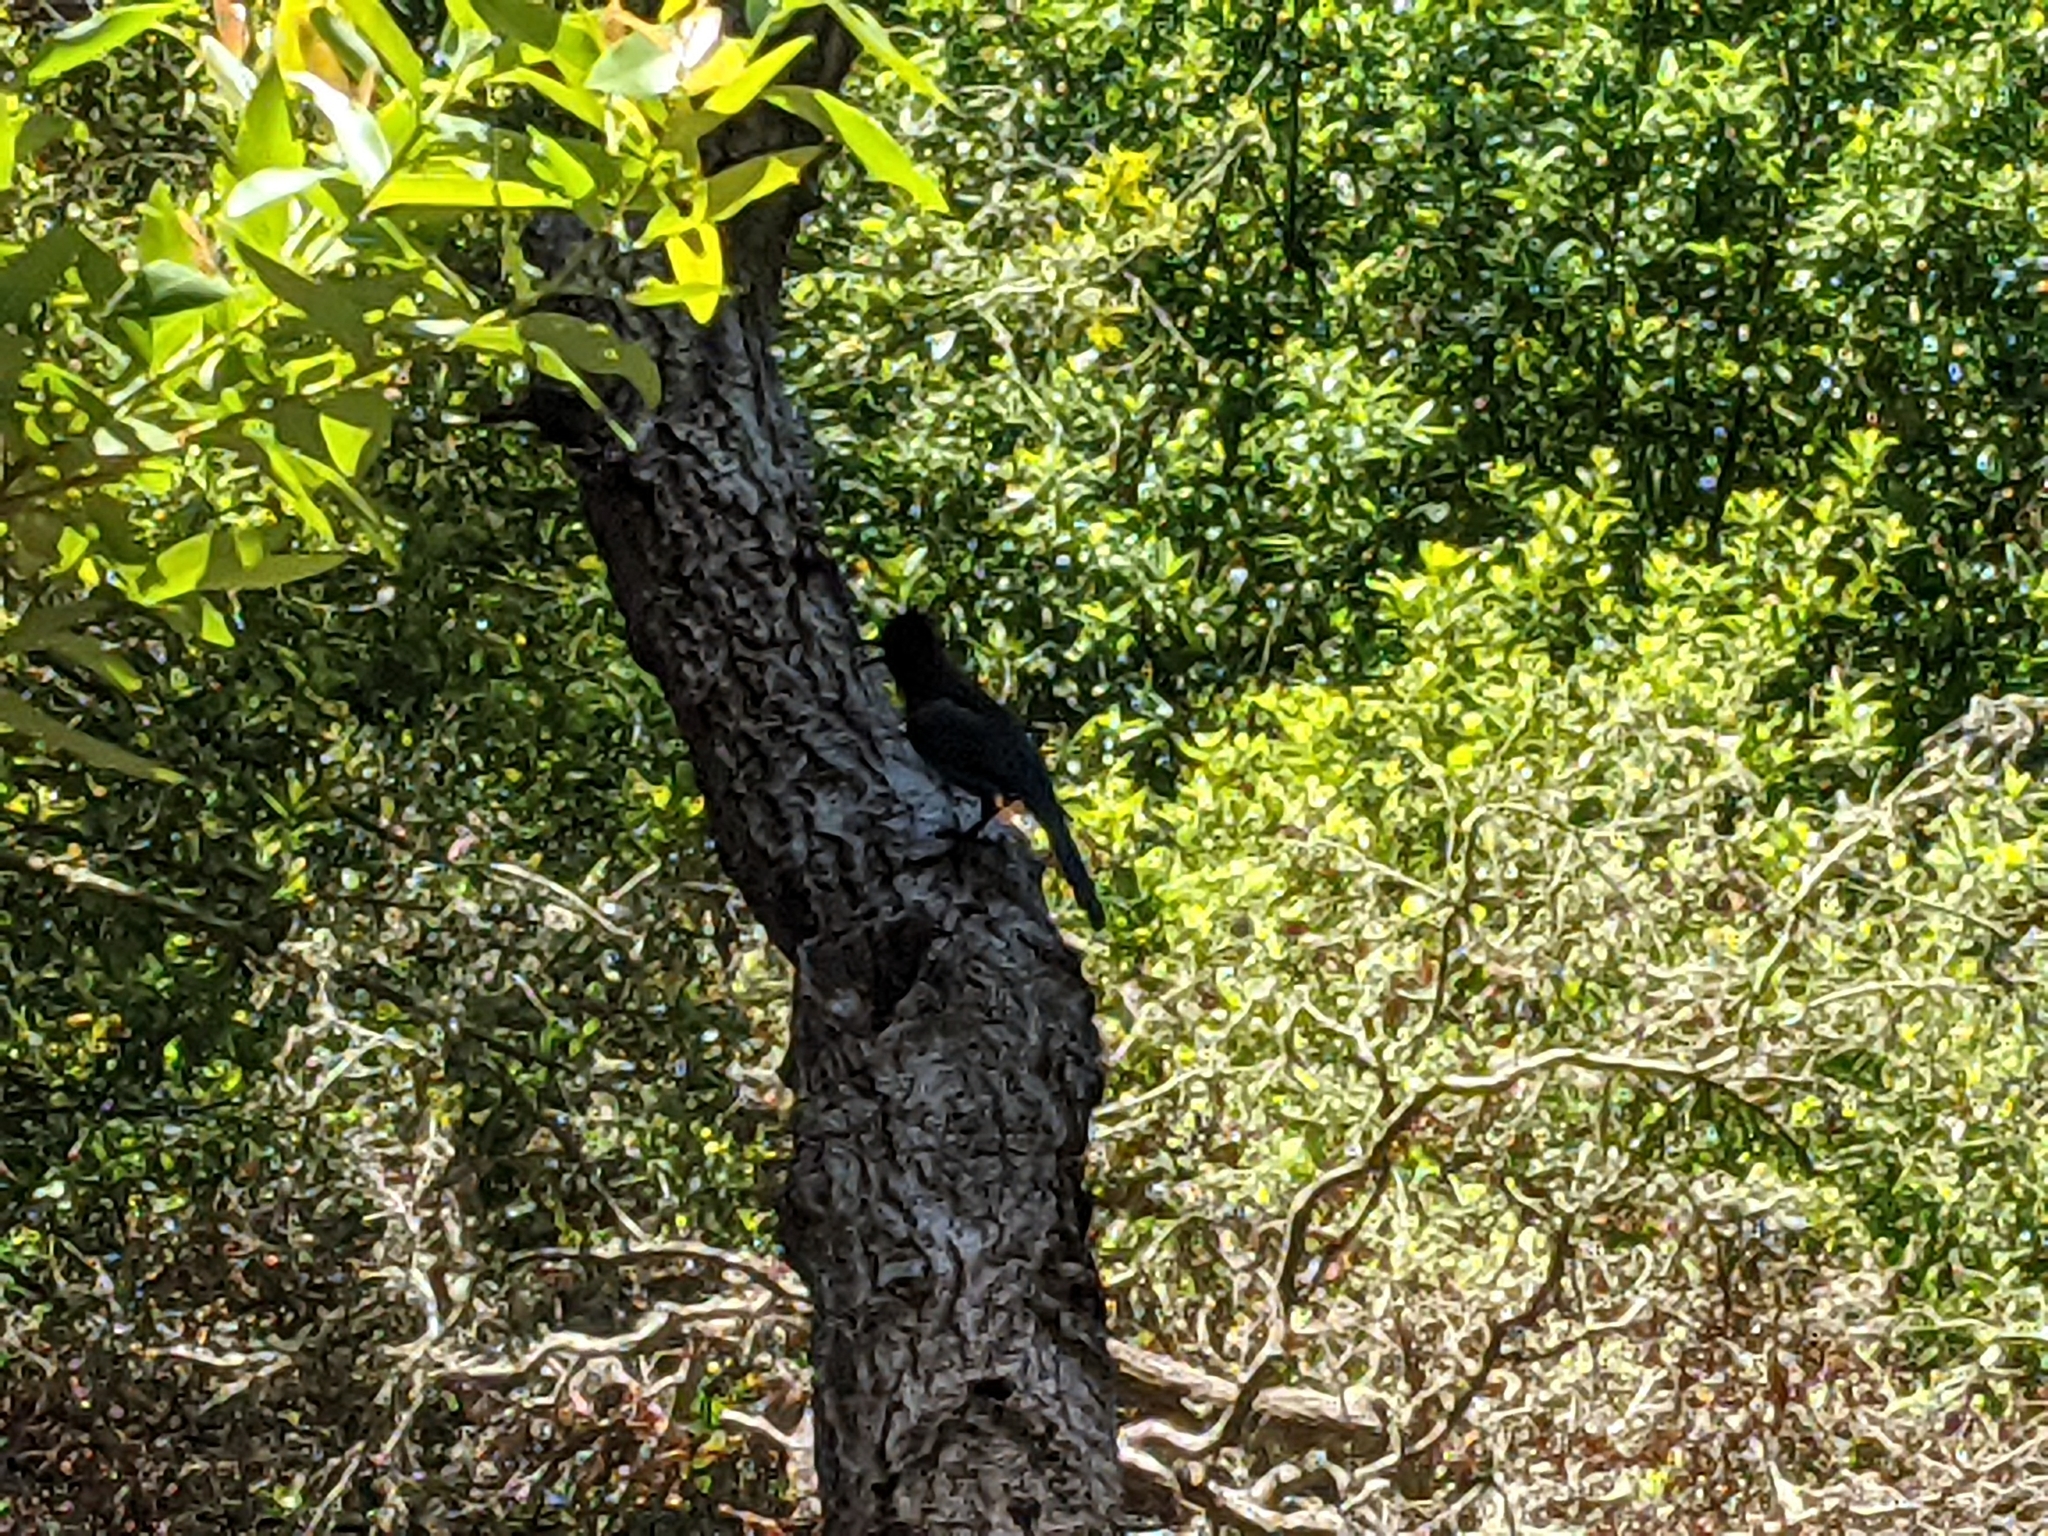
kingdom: Animalia
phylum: Chordata
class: Aves
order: Passeriformes
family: Corvidae
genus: Cyanocitta
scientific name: Cyanocitta stelleri
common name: Steller's jay
